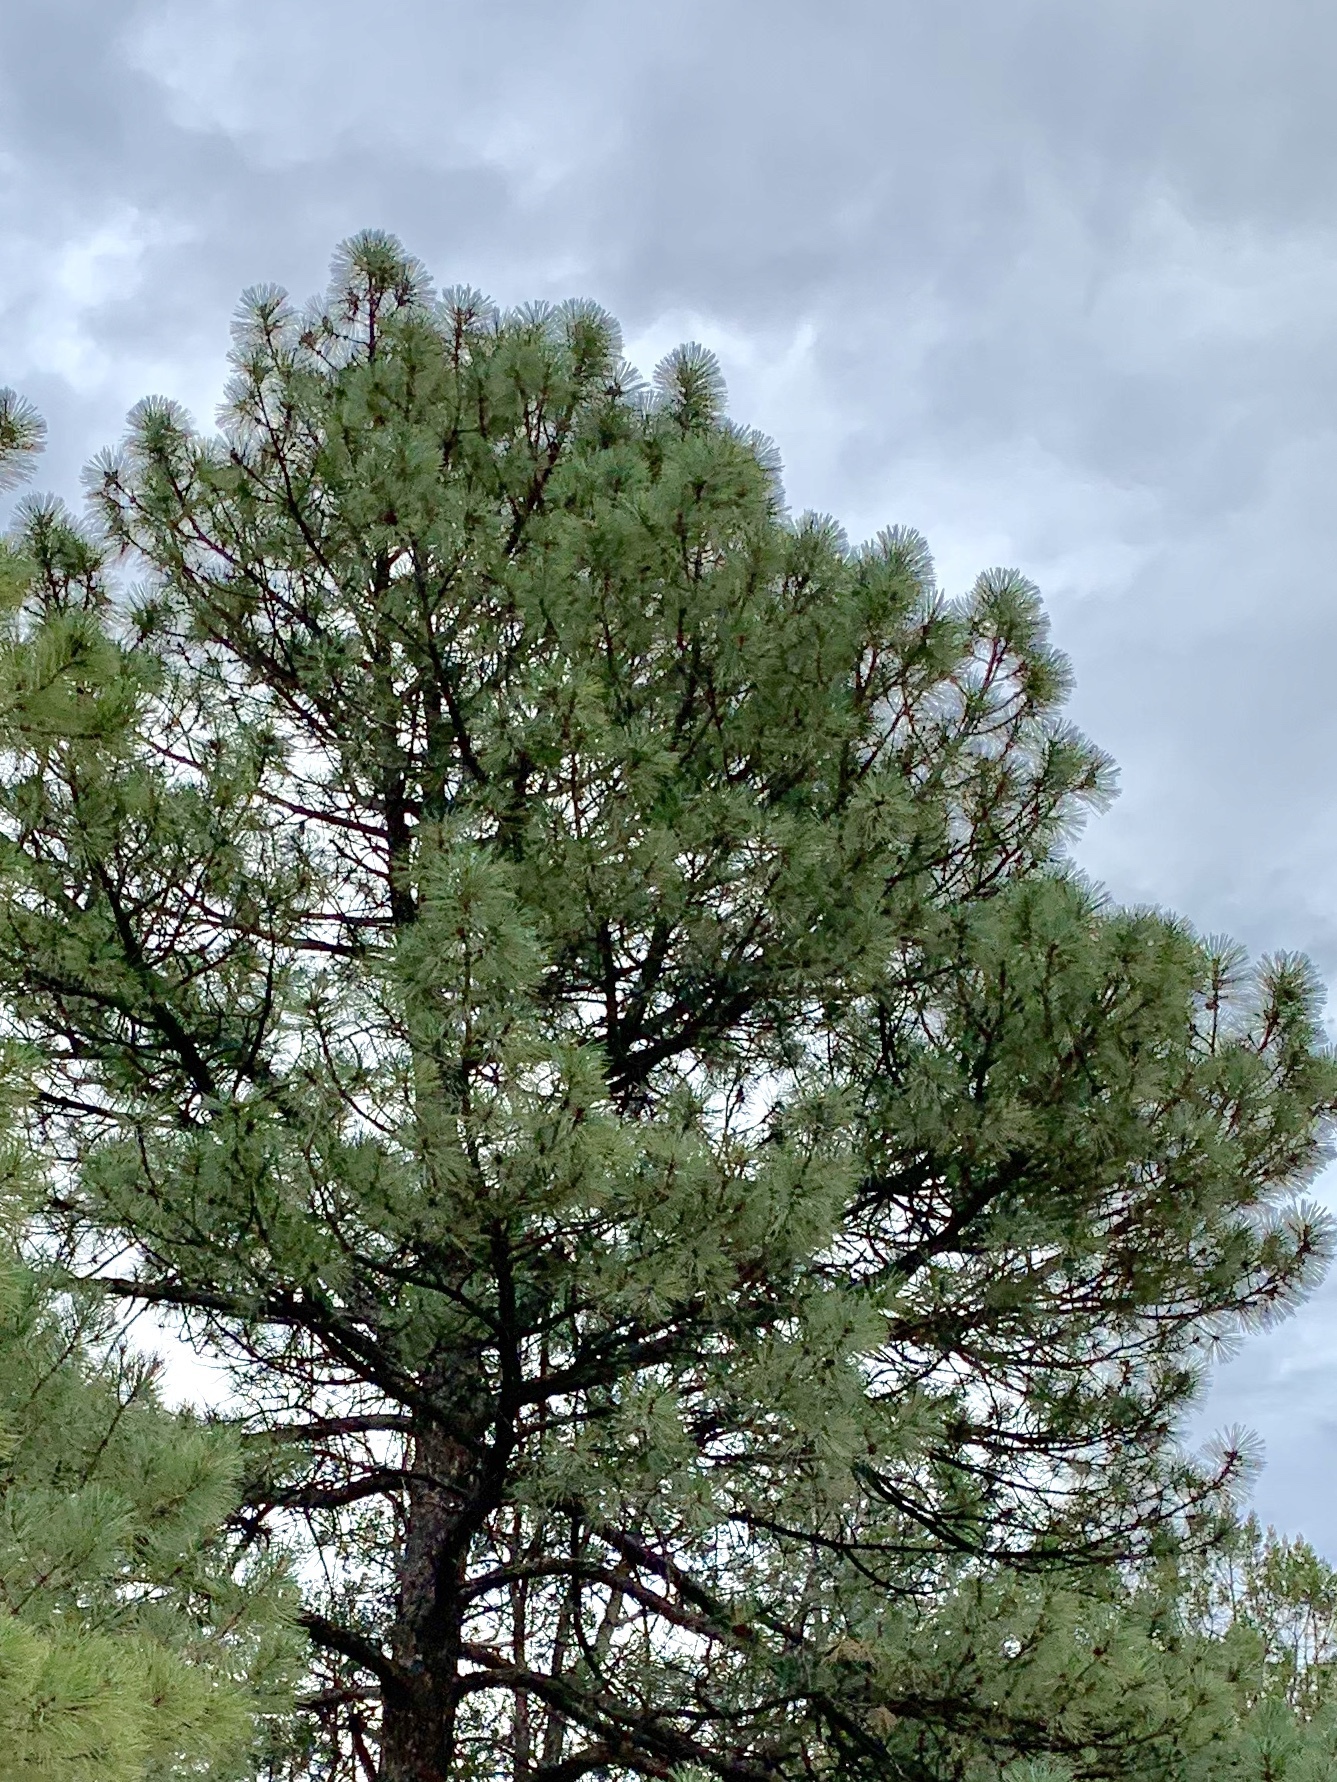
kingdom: Plantae
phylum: Tracheophyta
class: Pinopsida
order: Pinales
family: Pinaceae
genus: Pinus
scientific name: Pinus ponderosa
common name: Western yellow-pine
